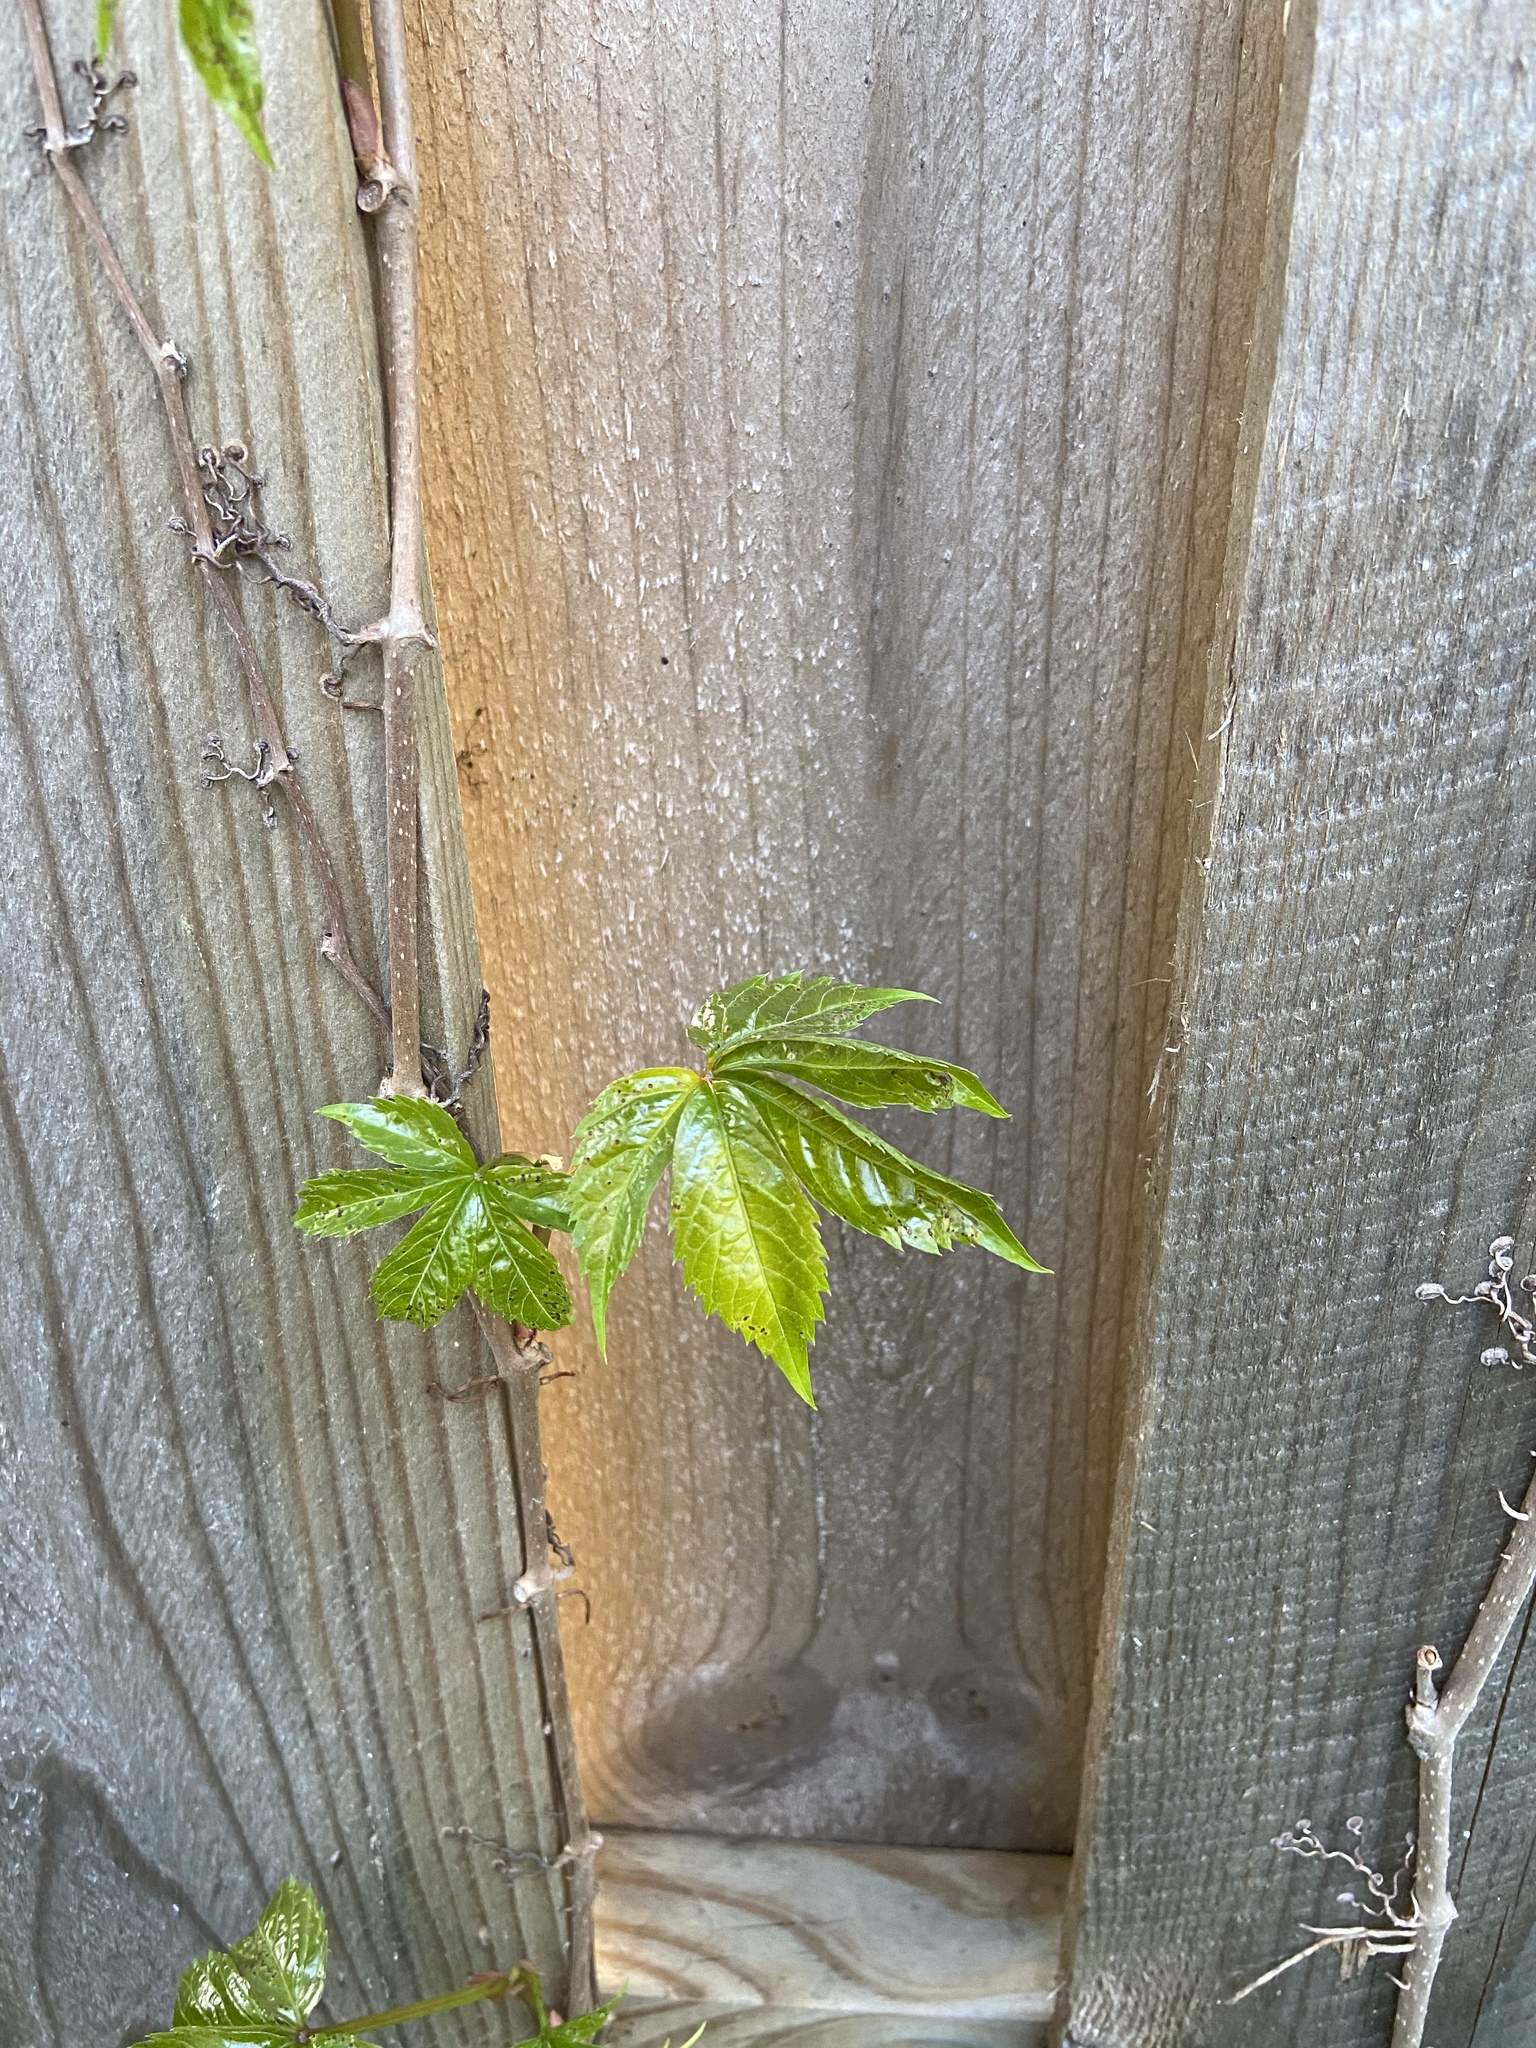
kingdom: Plantae
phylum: Tracheophyta
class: Magnoliopsida
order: Vitales
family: Vitaceae
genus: Parthenocissus
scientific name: Parthenocissus quinquefolia
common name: Virginia-creeper
